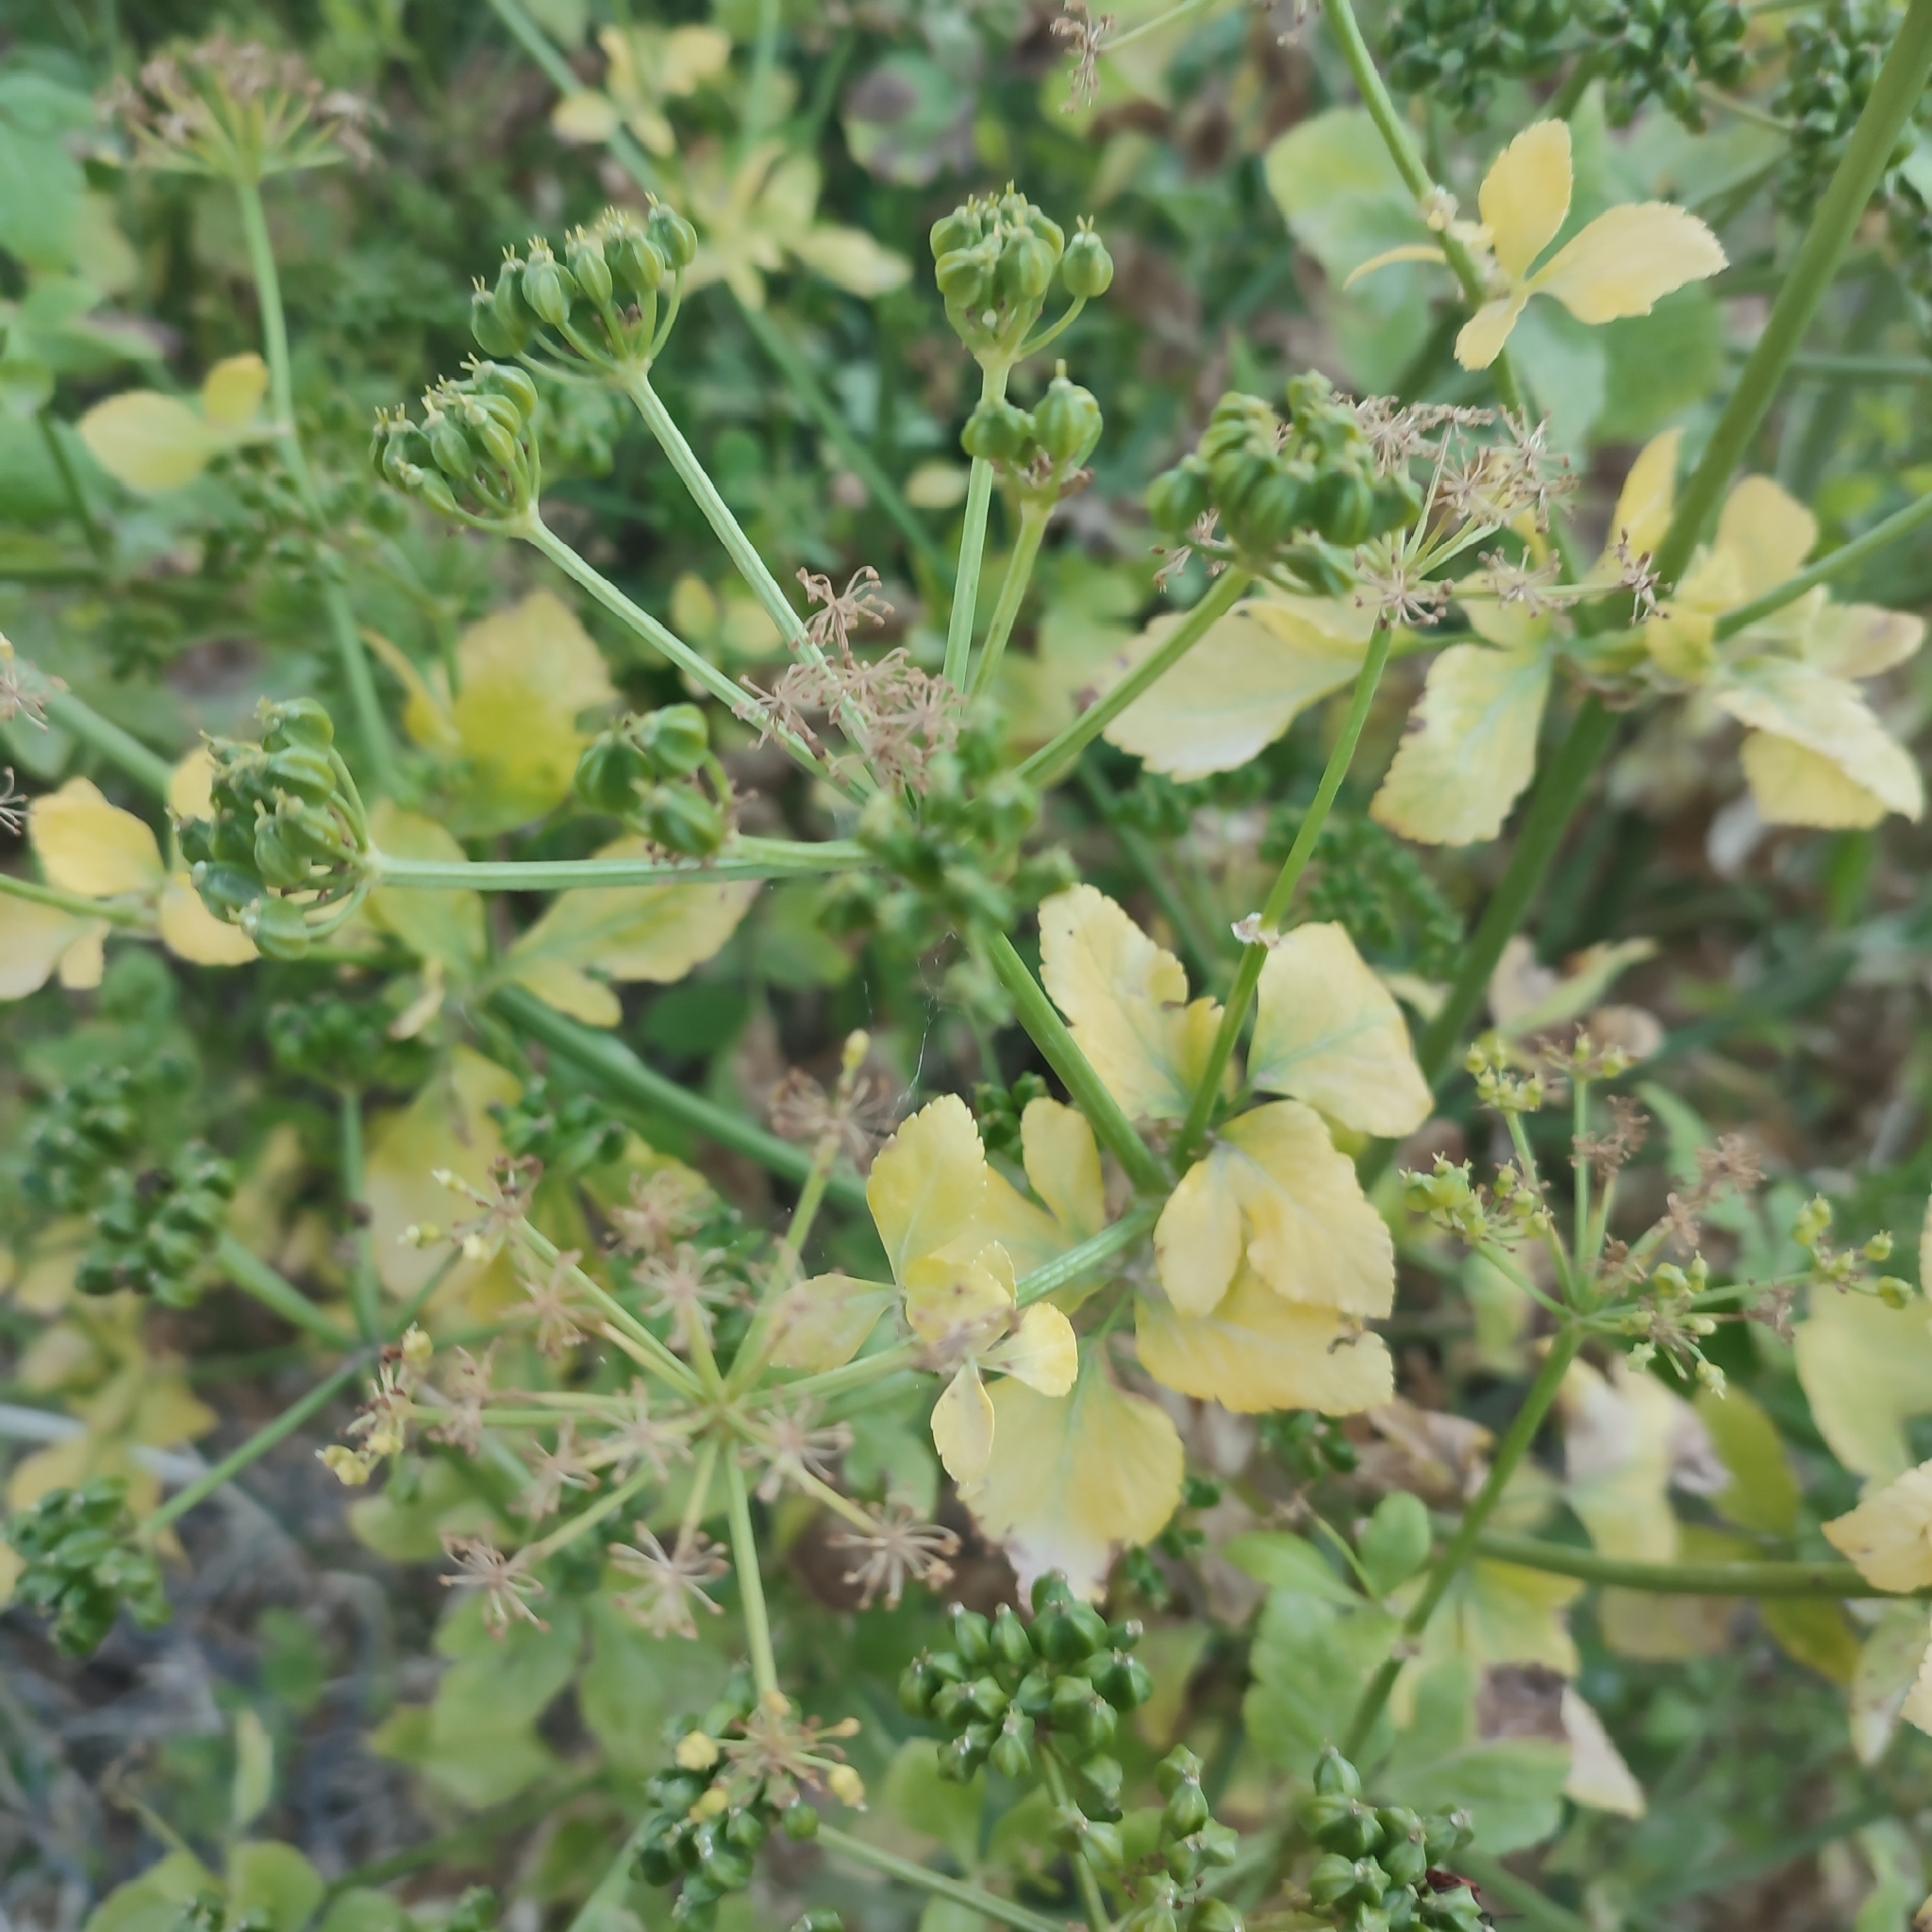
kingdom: Plantae
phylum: Tracheophyta
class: Magnoliopsida
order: Apiales
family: Apiaceae
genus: Smyrnium
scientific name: Smyrnium olusatrum
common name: Alexanders
